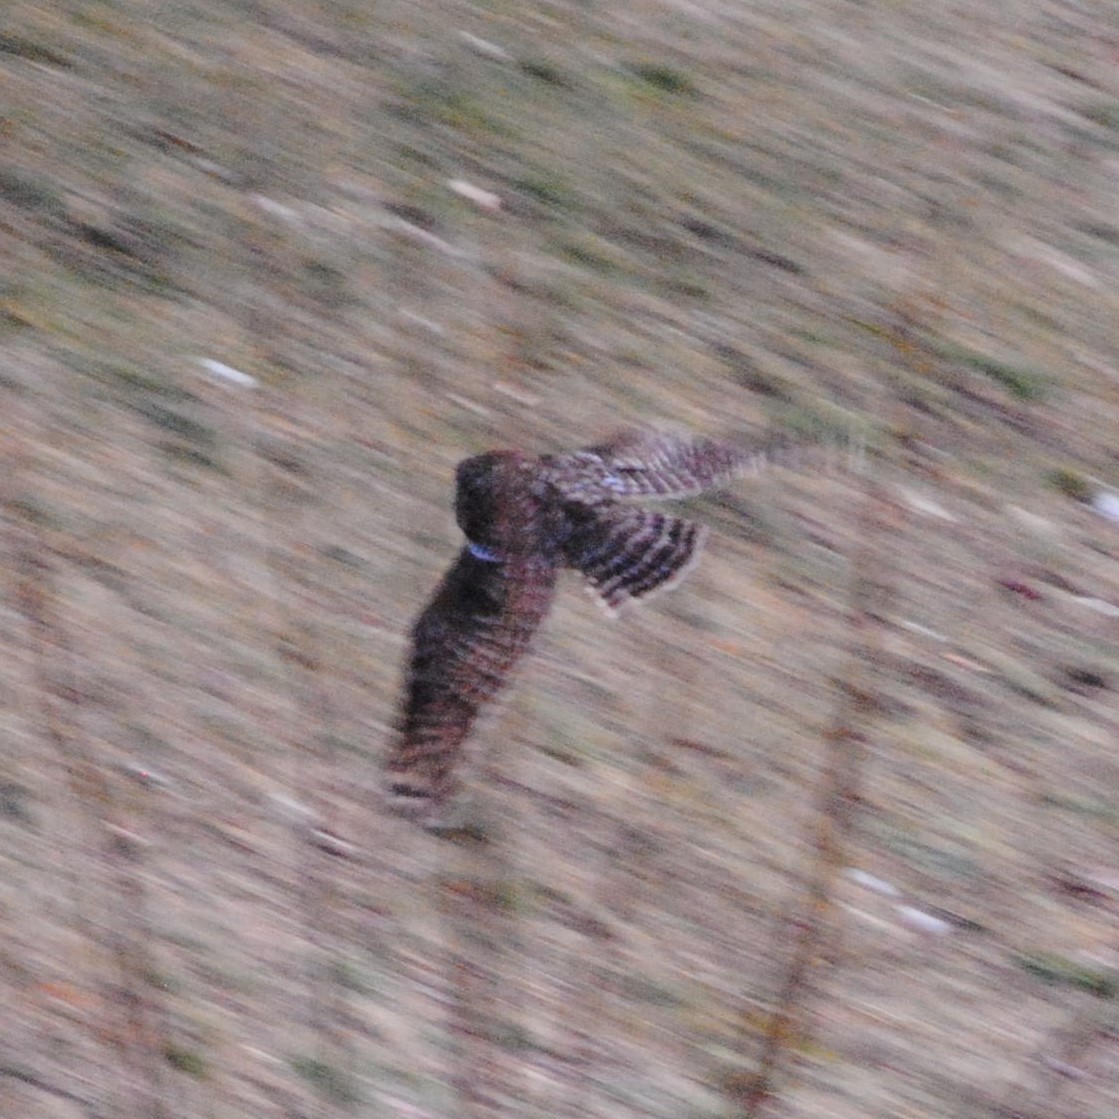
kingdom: Animalia
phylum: Chordata
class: Aves
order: Strigiformes
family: Strigidae
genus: Strix
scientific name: Strix varia
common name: Barred owl
